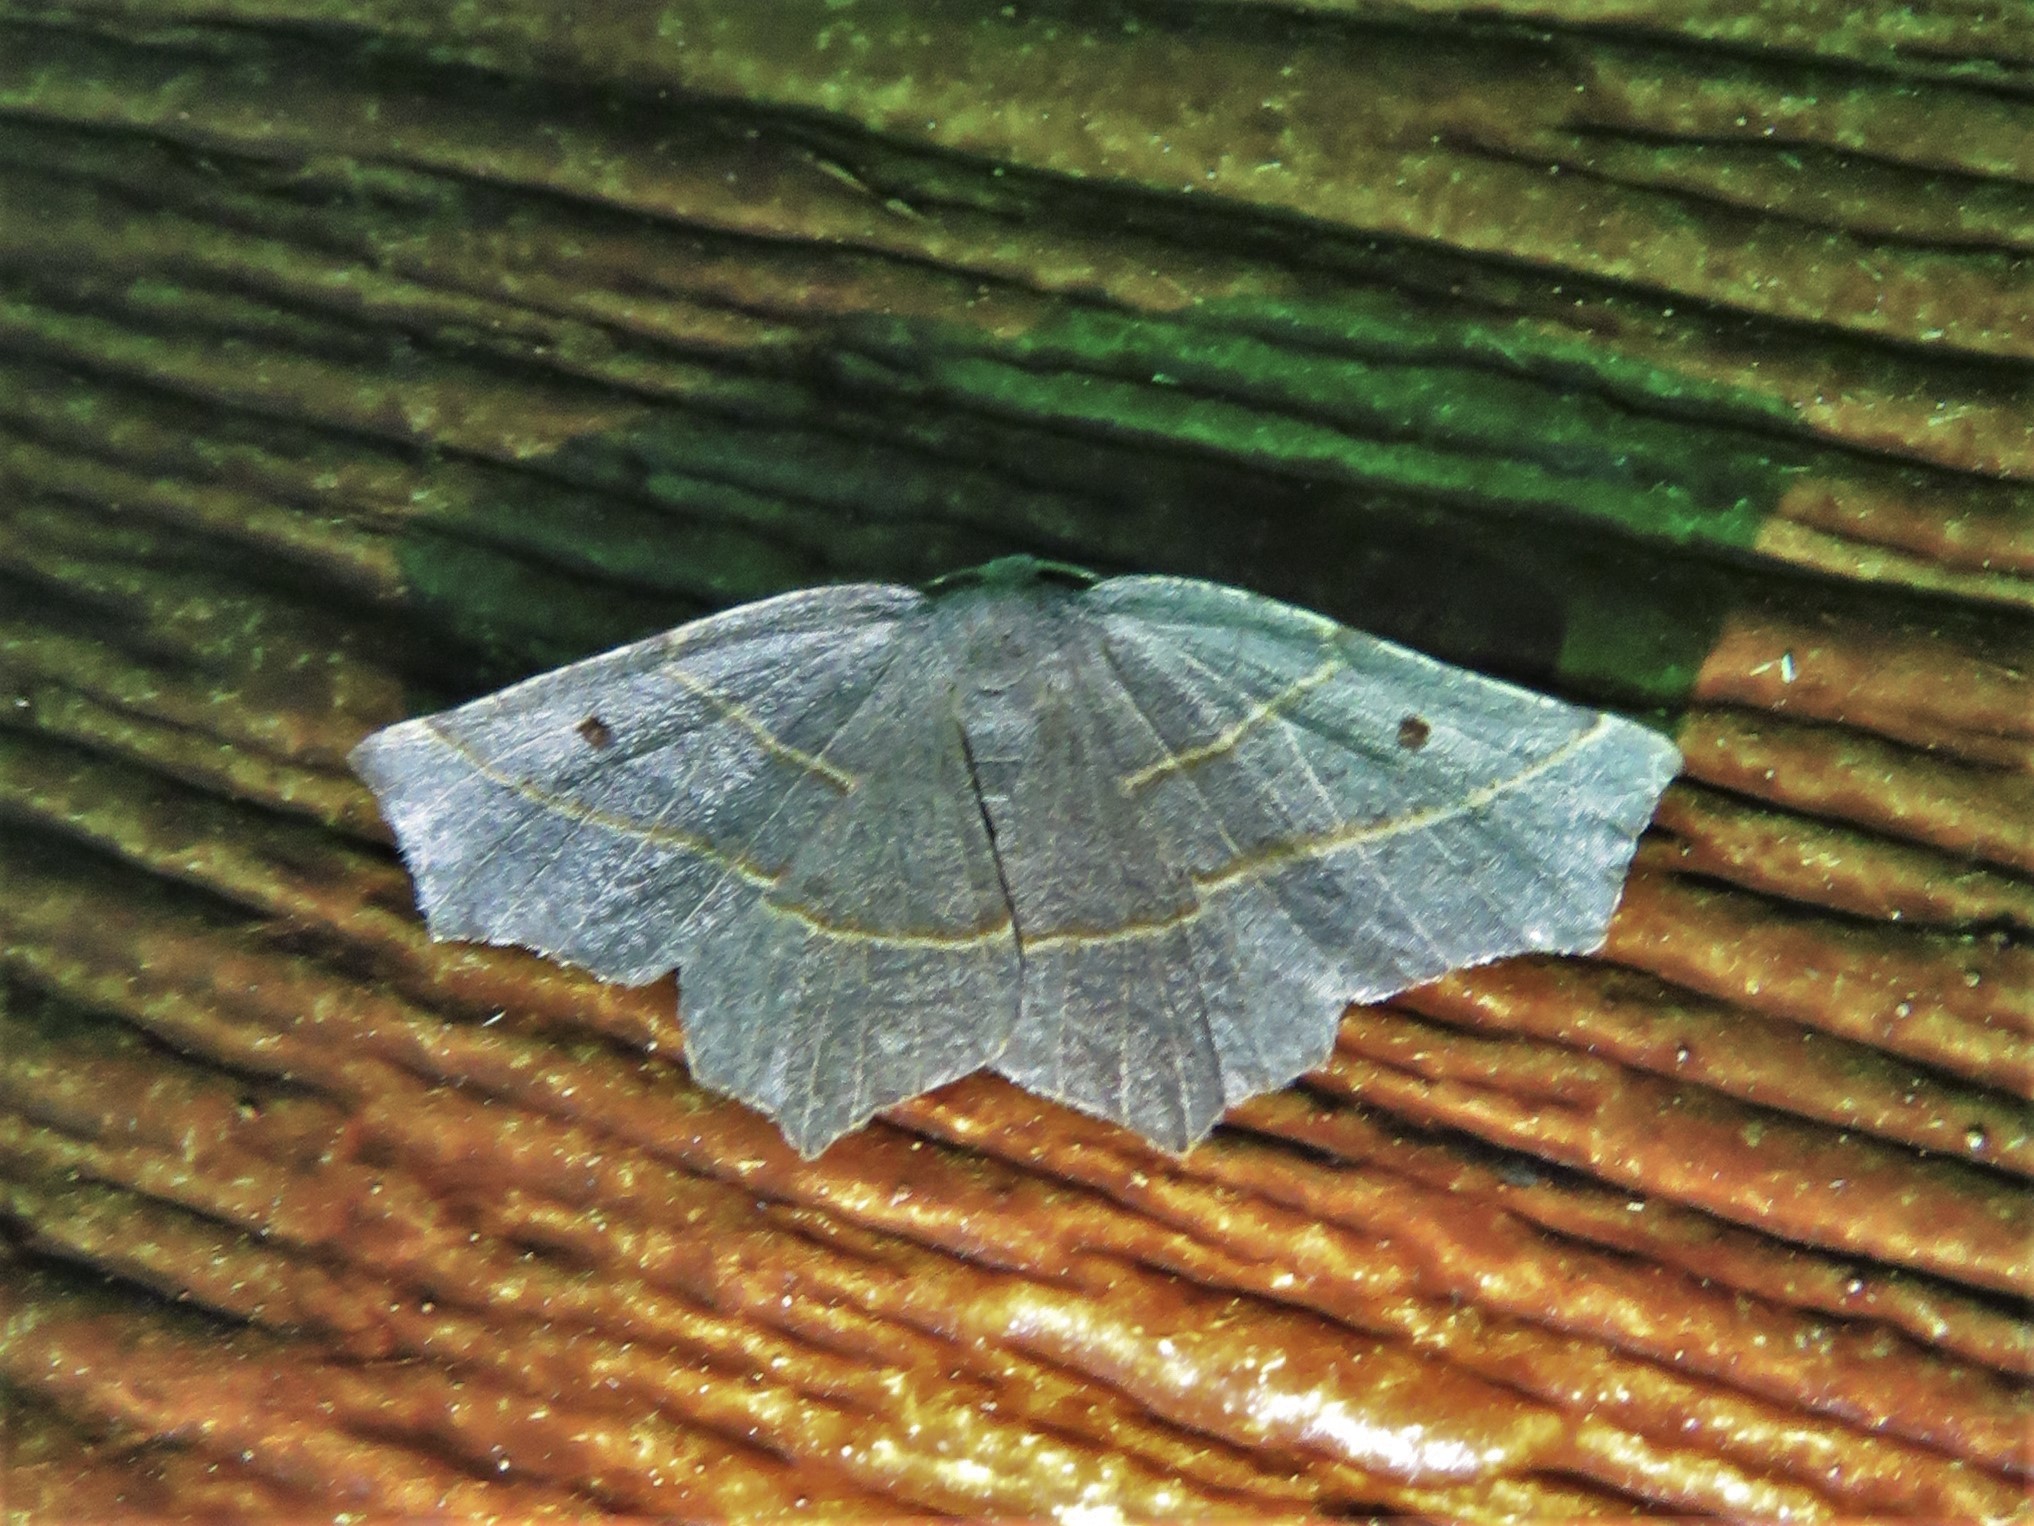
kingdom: Animalia
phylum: Arthropoda
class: Insecta
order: Lepidoptera
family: Geometridae
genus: Metanema
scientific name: Metanema inatomaria
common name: Pale metanema
